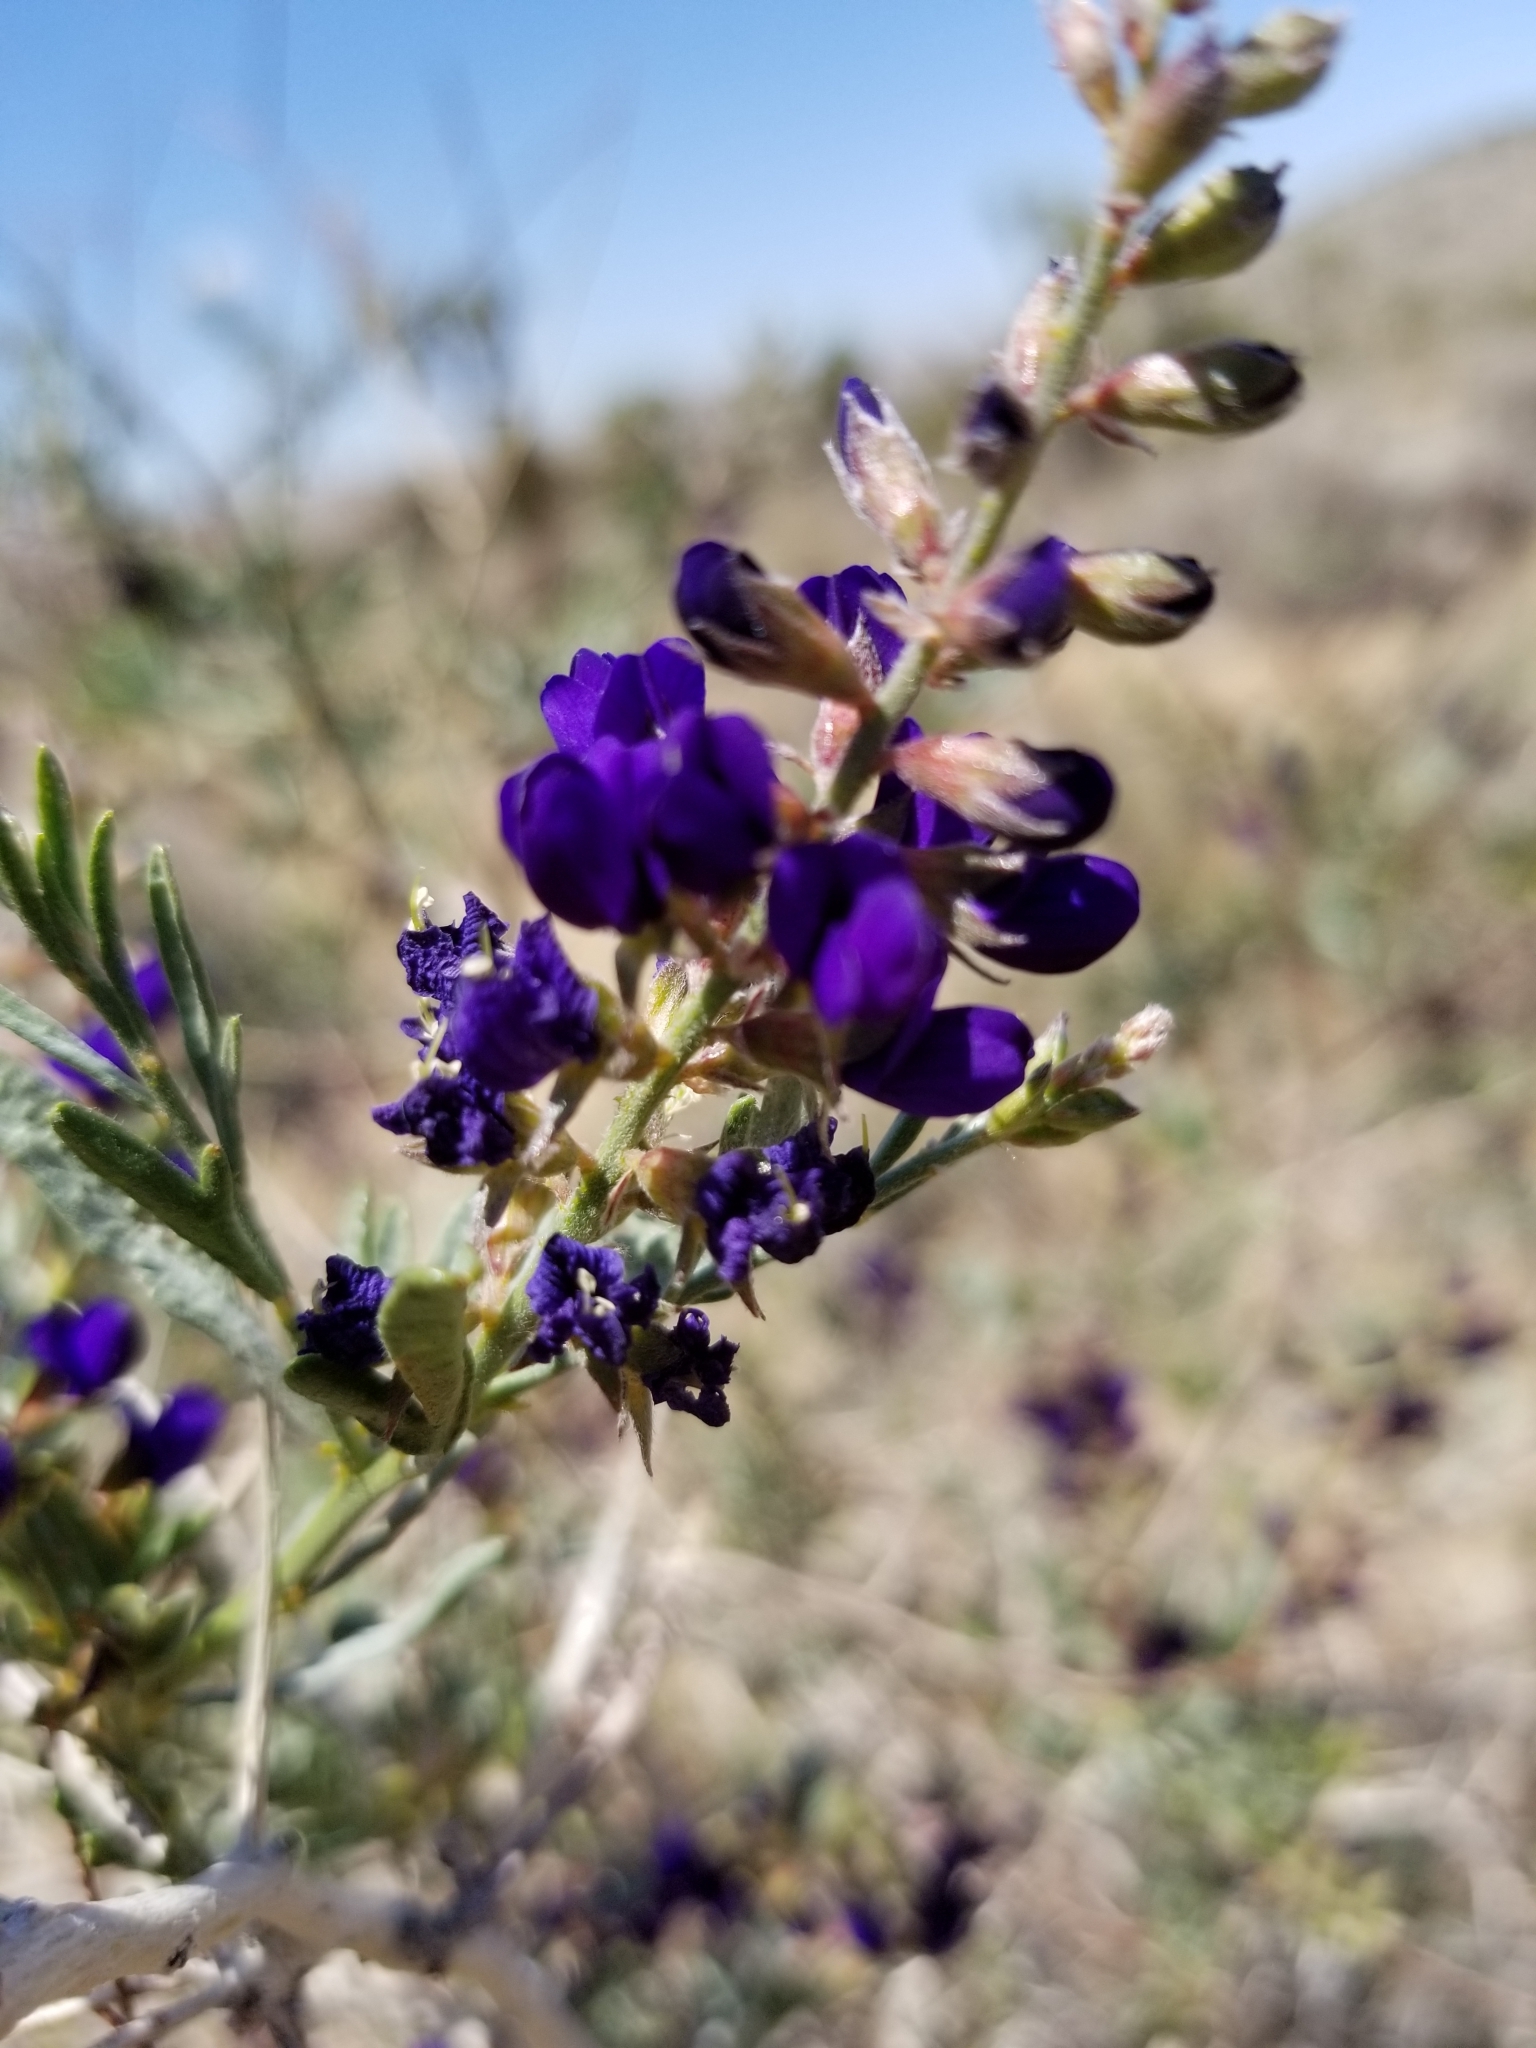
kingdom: Plantae
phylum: Tracheophyta
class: Magnoliopsida
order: Fabales
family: Fabaceae
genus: Psorothamnus
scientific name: Psorothamnus arborescens
